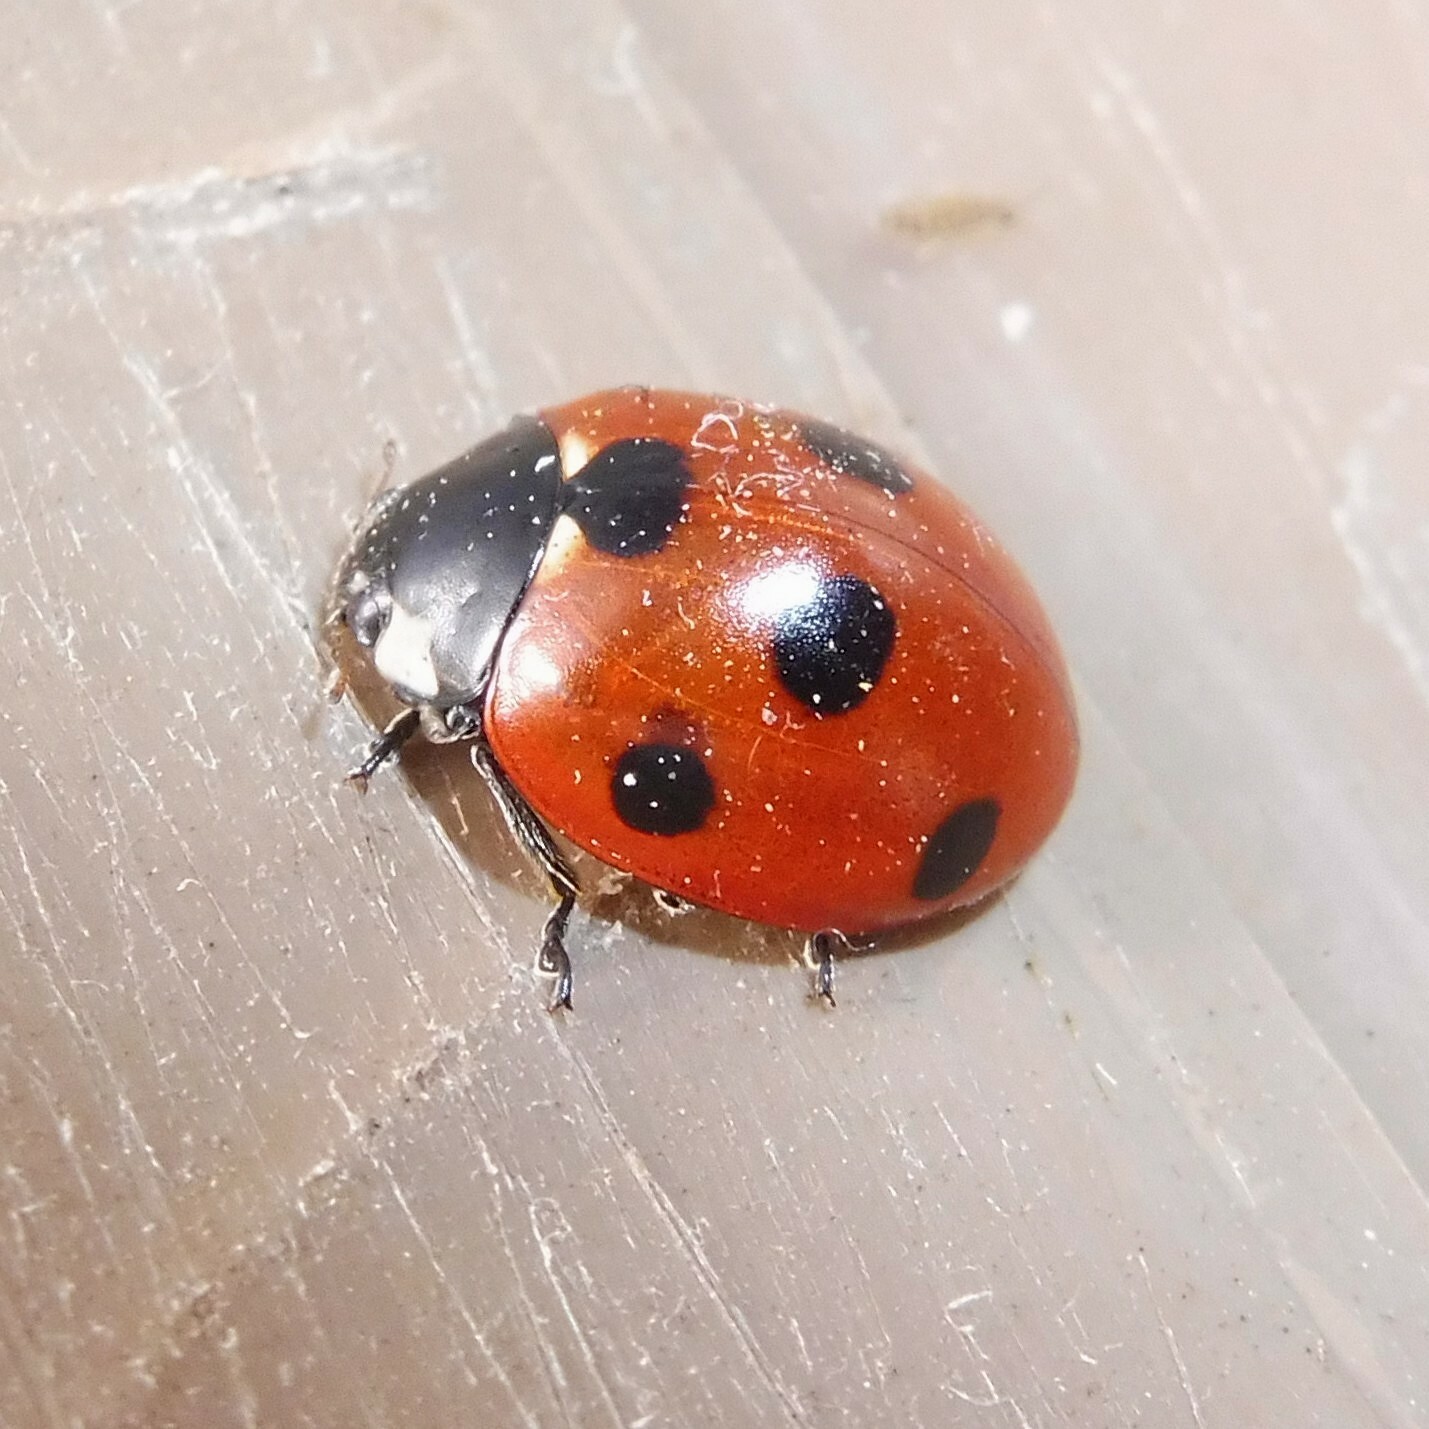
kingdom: Animalia
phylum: Arthropoda
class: Insecta
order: Coleoptera
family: Coccinellidae
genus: Coccinella
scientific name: Coccinella septempunctata
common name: Sevenspotted lady beetle
